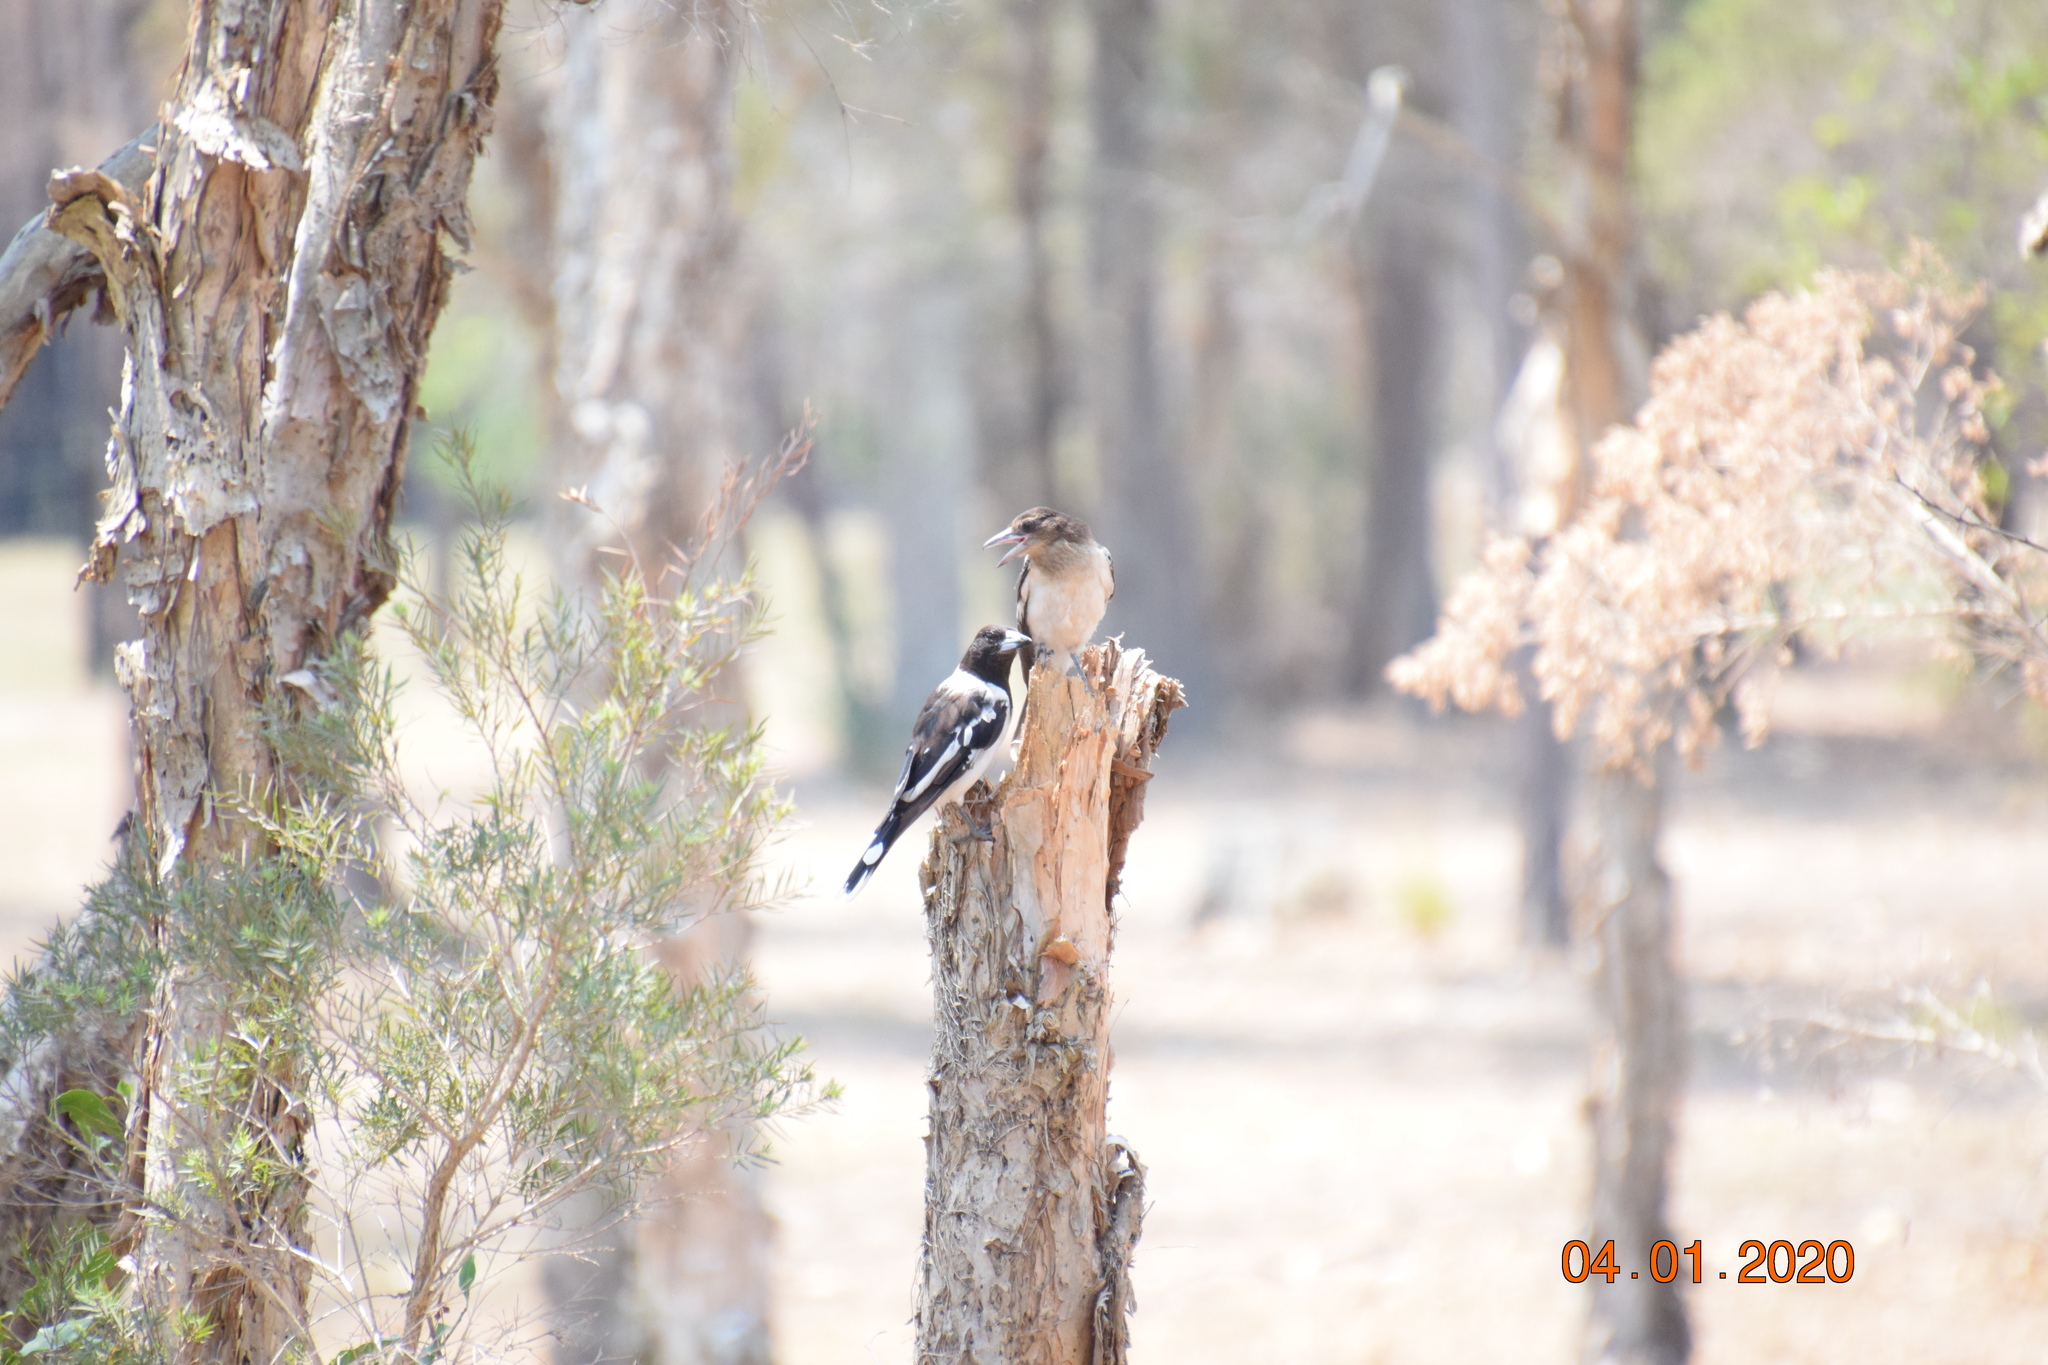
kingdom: Animalia
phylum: Chordata
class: Aves
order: Passeriformes
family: Cracticidae
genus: Cracticus
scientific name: Cracticus nigrogularis
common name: Pied butcherbird
